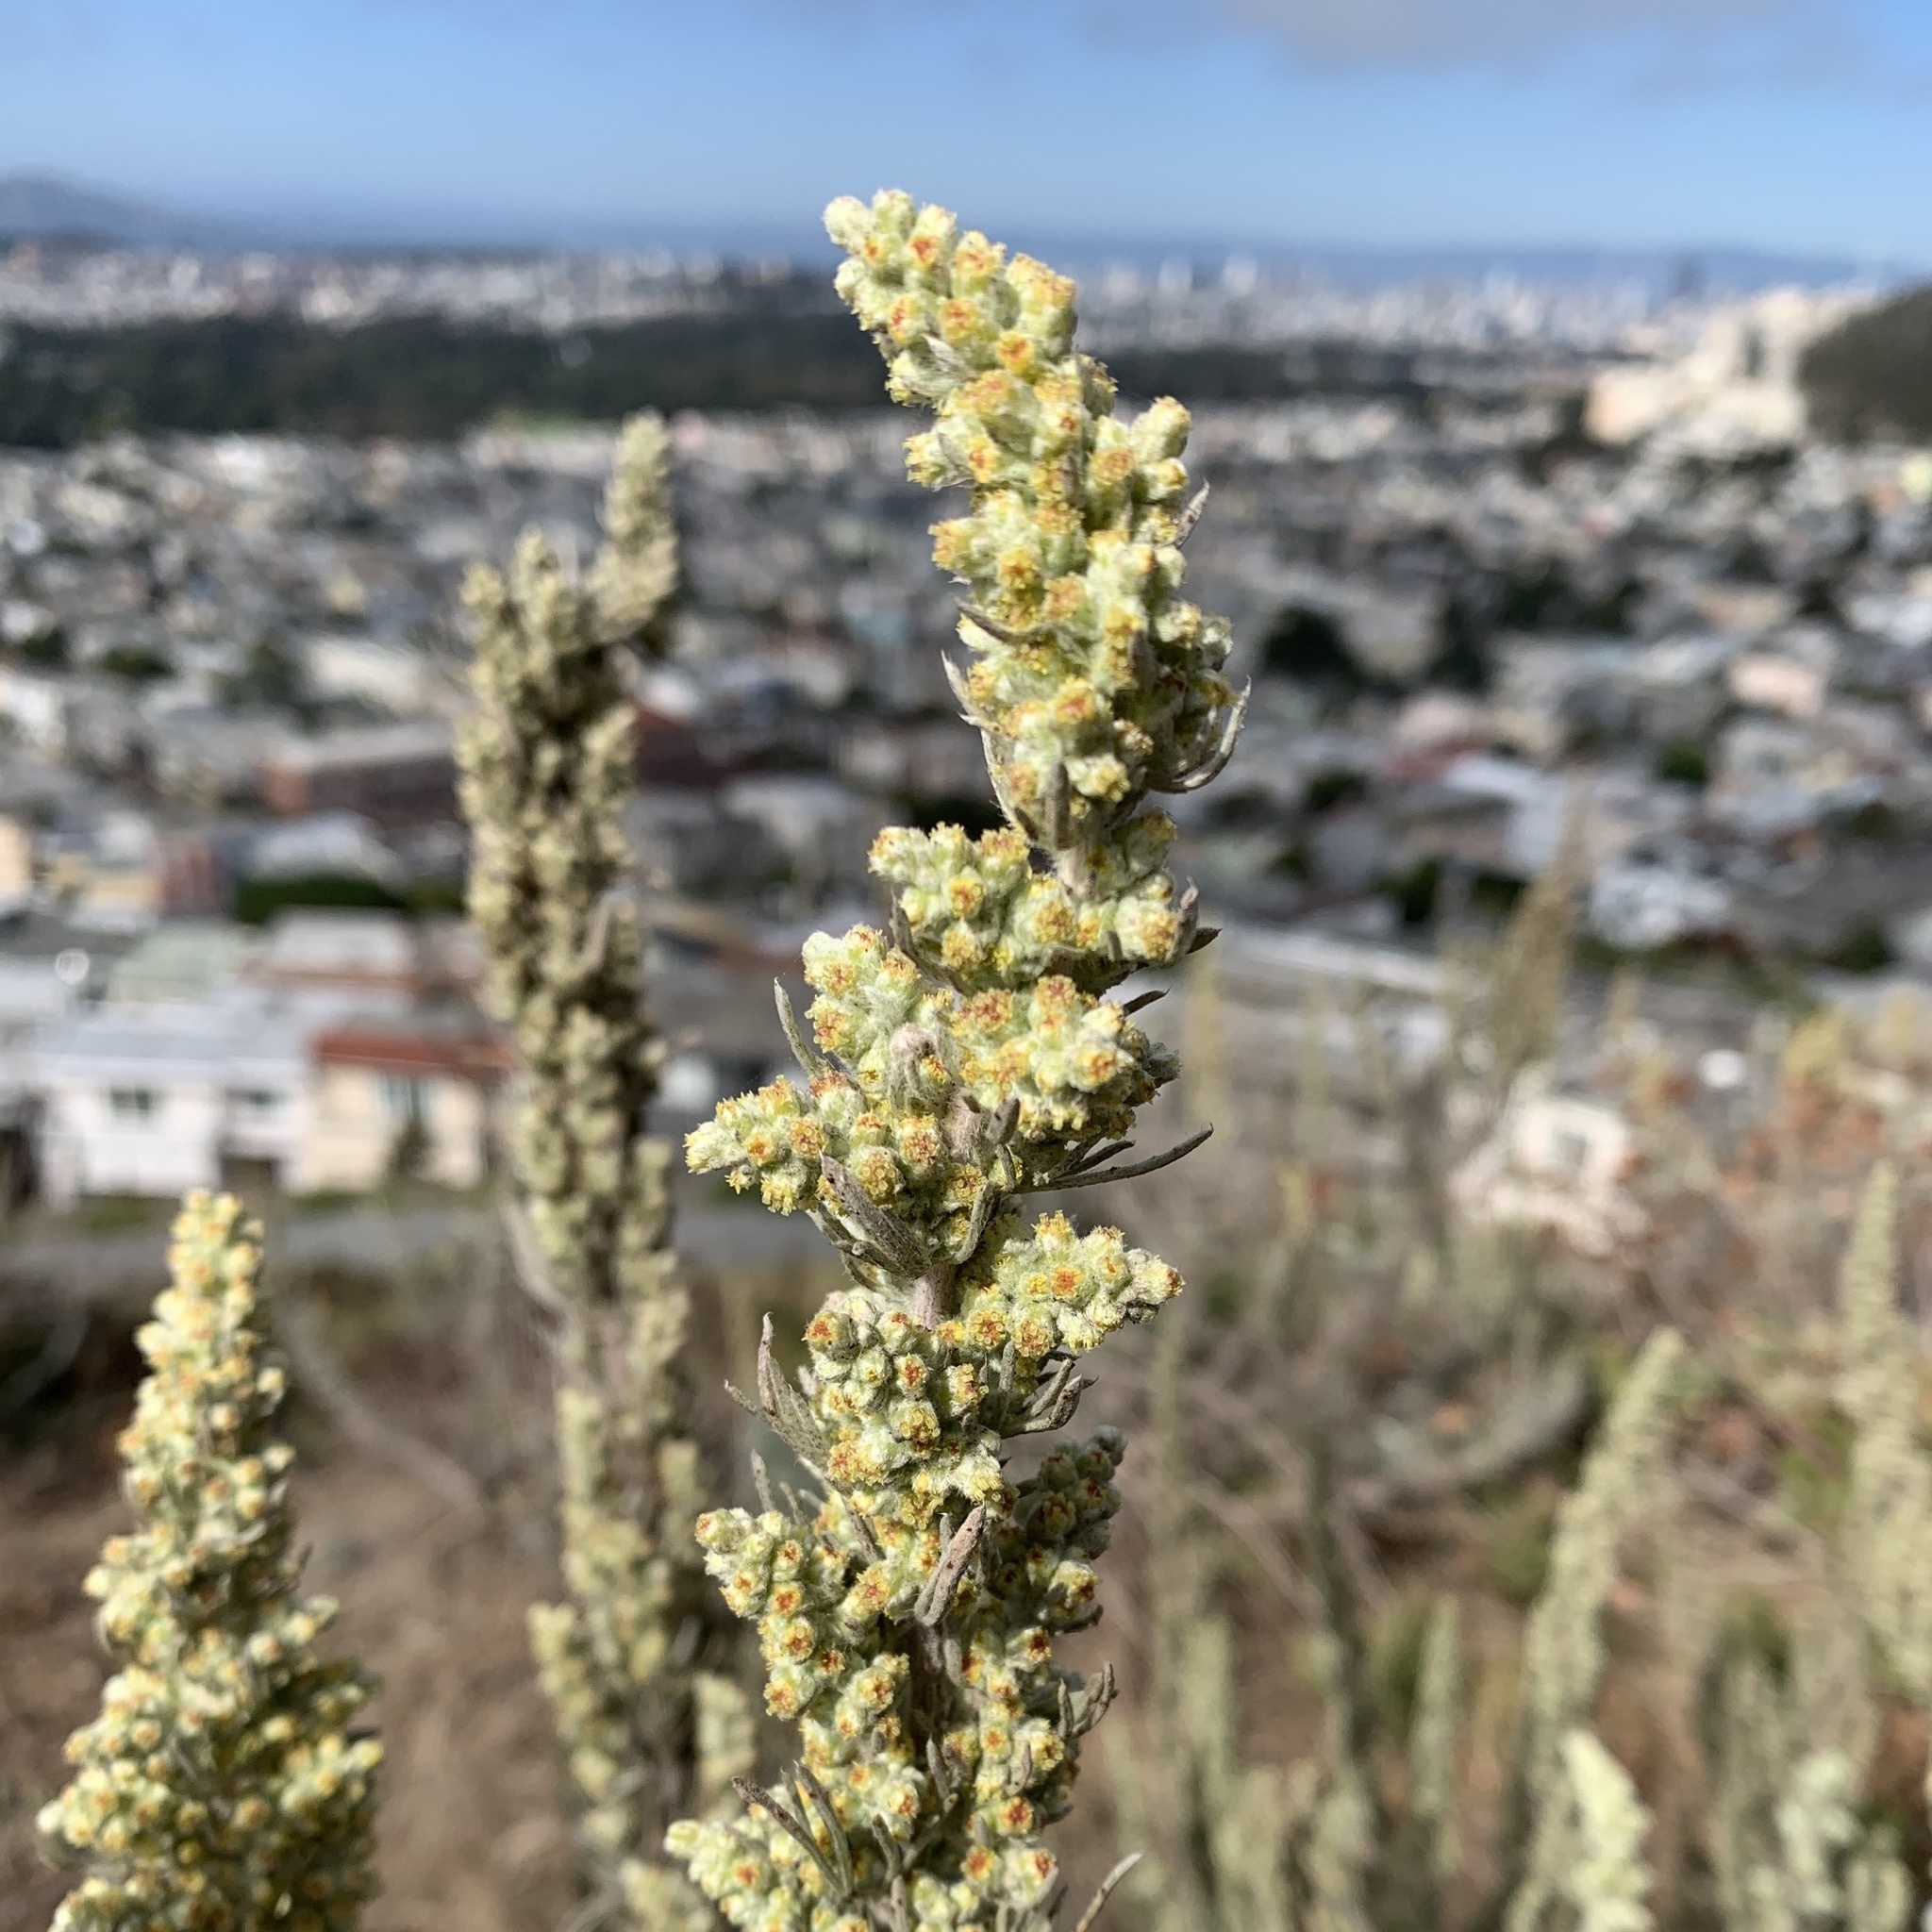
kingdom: Plantae
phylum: Tracheophyta
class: Magnoliopsida
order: Asterales
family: Asteraceae
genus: Artemisia
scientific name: Artemisia californica
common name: California sagebrush
